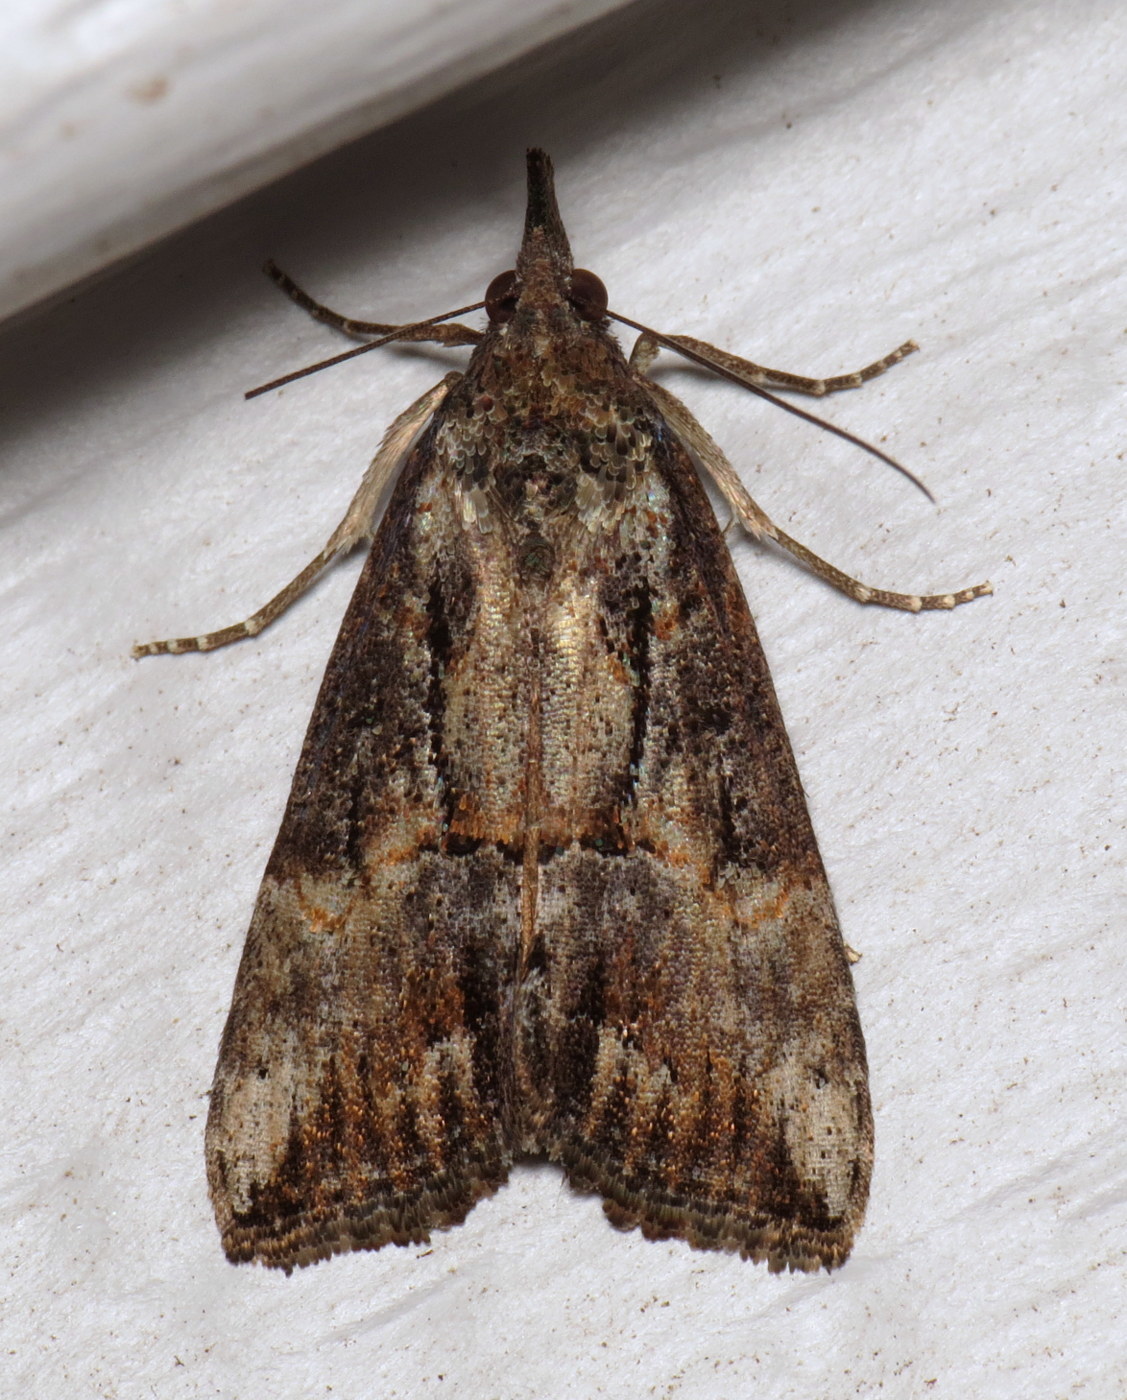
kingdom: Animalia
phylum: Arthropoda
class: Insecta
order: Lepidoptera
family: Erebidae
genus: Hypena
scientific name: Hypena scabra
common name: Green cloverworm
